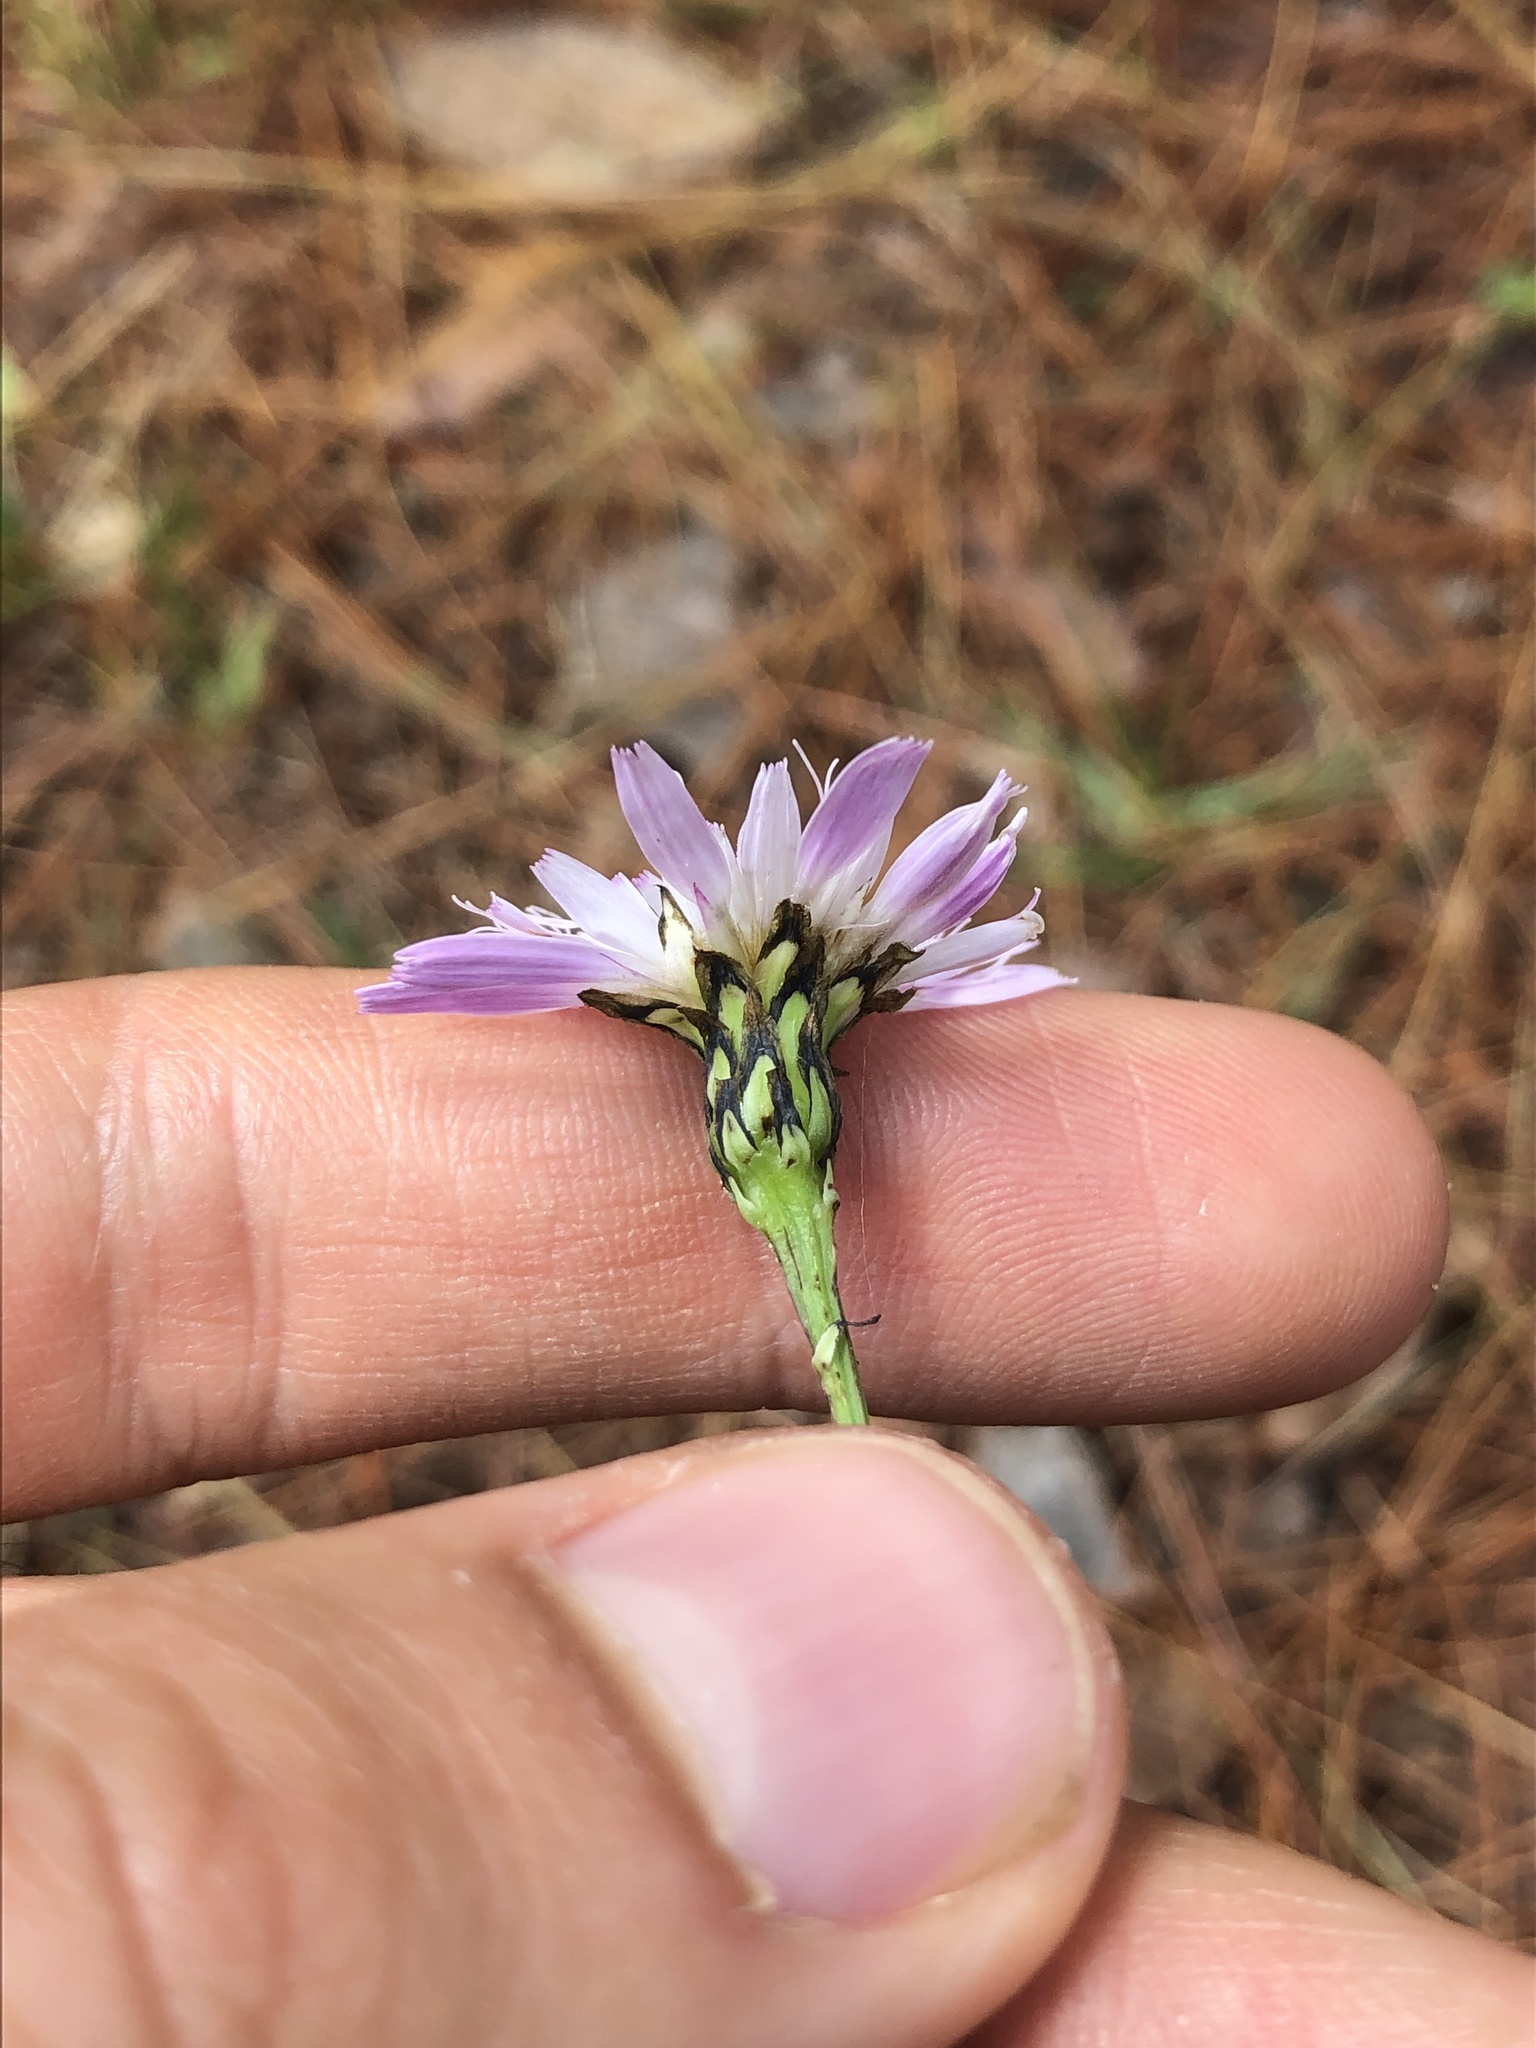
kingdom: Plantae
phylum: Tracheophyta
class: Magnoliopsida
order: Asterales
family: Asteraceae
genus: Pinaropappus
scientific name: Pinaropappus spathulatus
